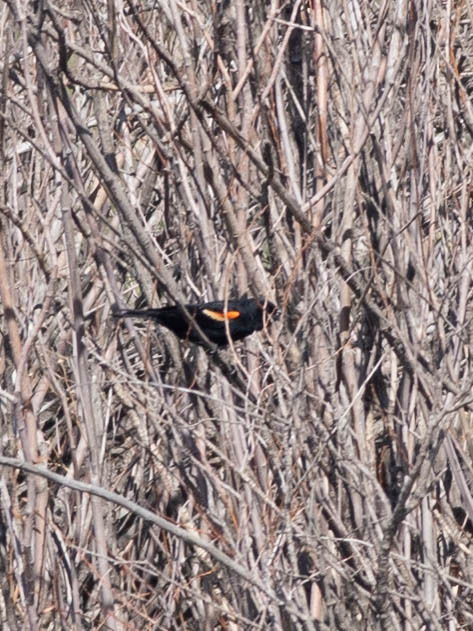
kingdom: Animalia
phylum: Chordata
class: Aves
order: Passeriformes
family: Icteridae
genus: Agelaius
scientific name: Agelaius phoeniceus
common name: Red-winged blackbird
